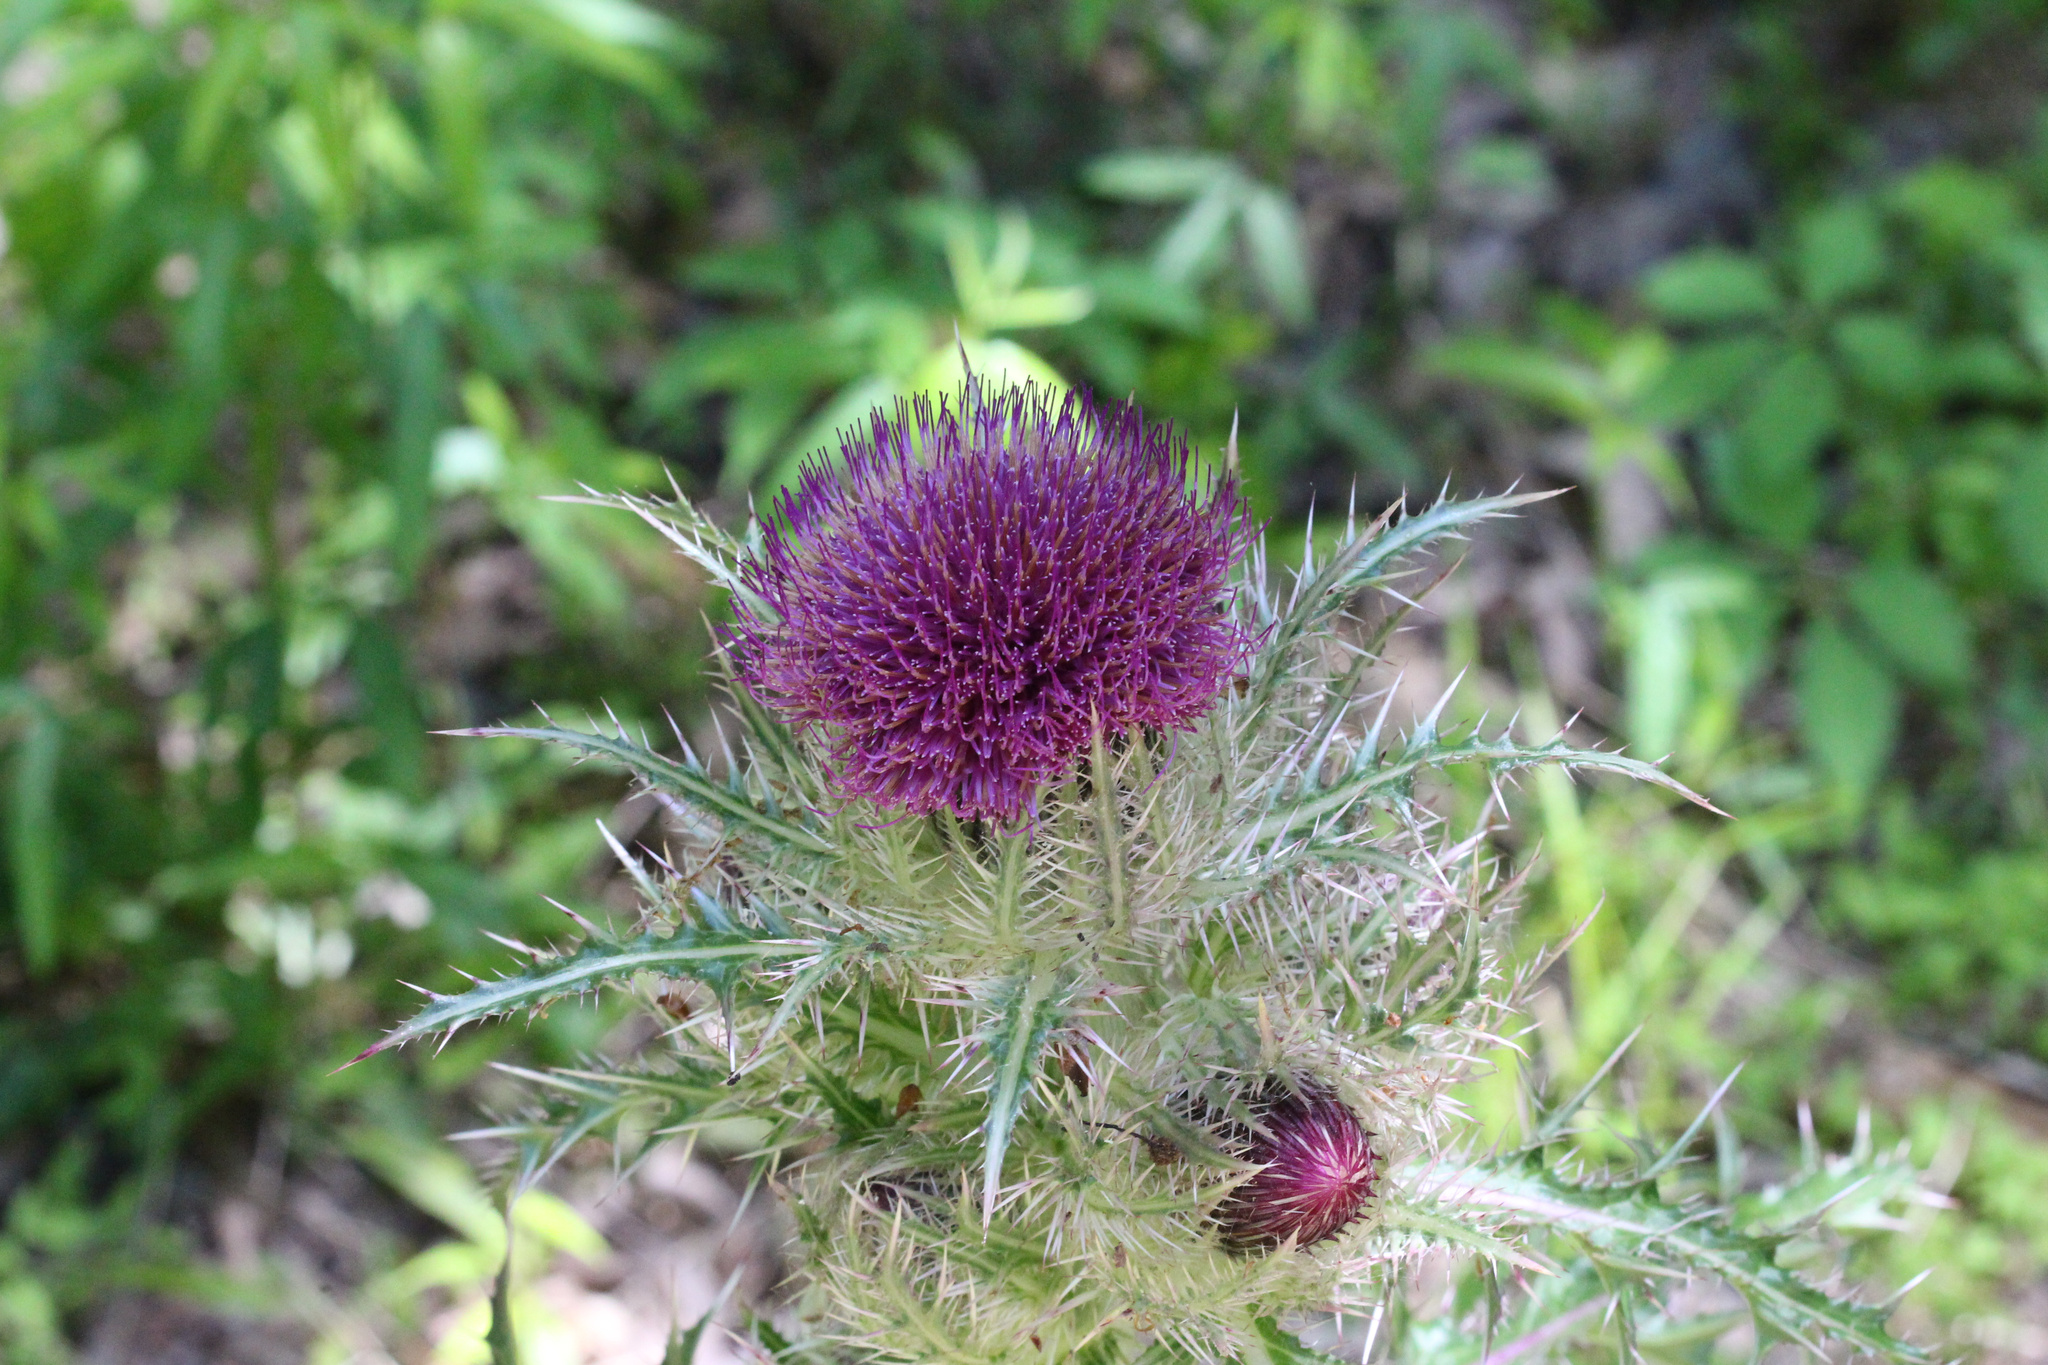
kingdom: Plantae
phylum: Tracheophyta
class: Magnoliopsida
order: Asterales
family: Asteraceae
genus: Cirsium
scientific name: Cirsium horridulum
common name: Bristly thistle
